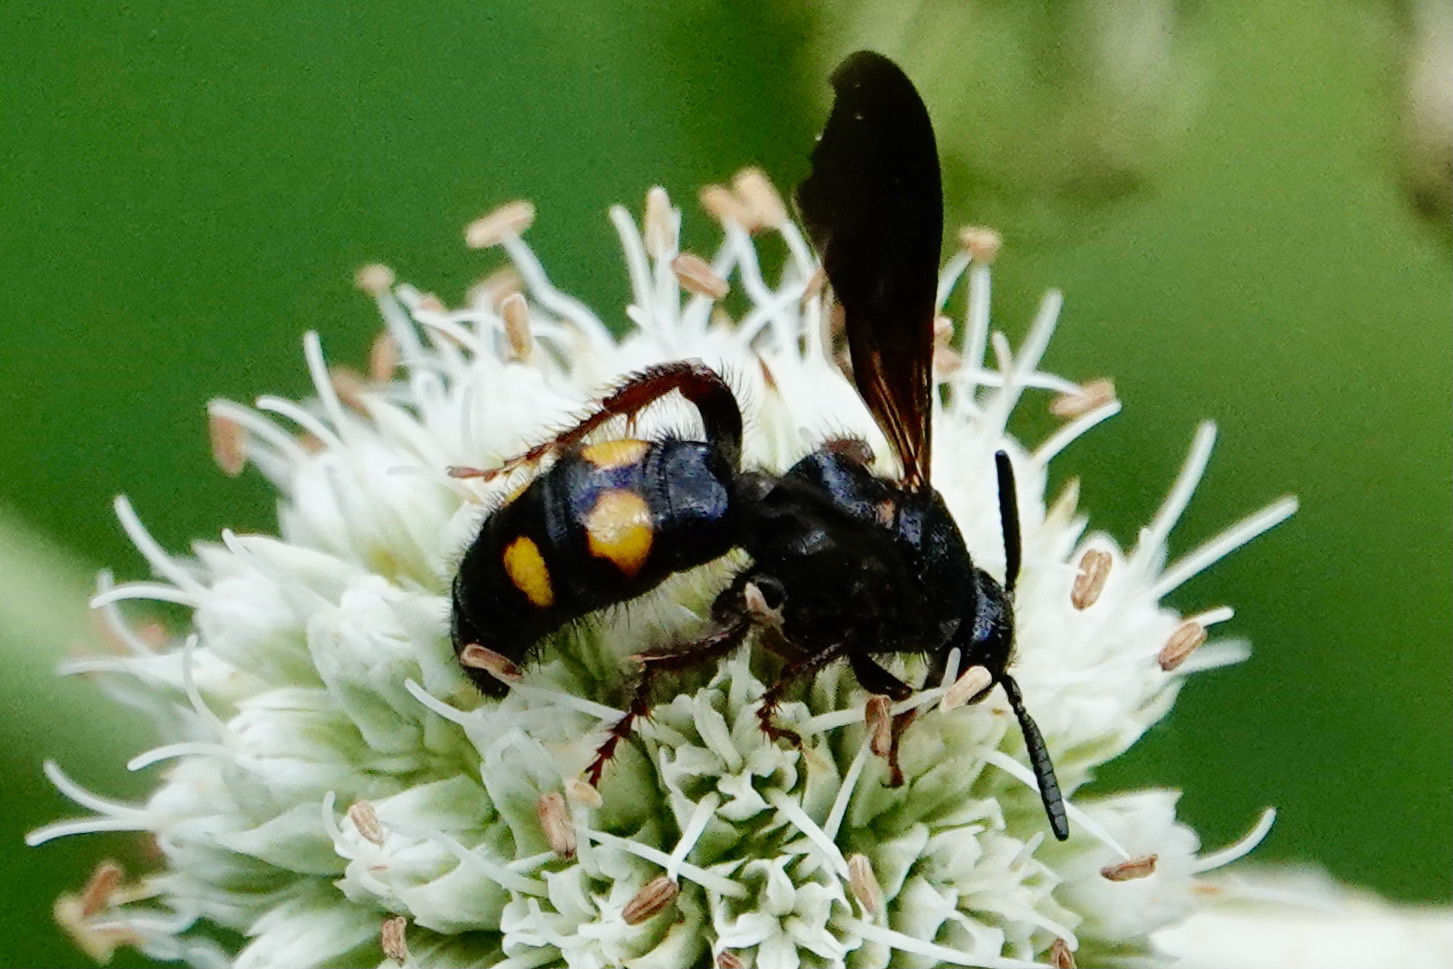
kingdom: Animalia
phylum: Arthropoda
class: Insecta
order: Hymenoptera
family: Scoliidae
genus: Scolia
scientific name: Scolia nobilitata
